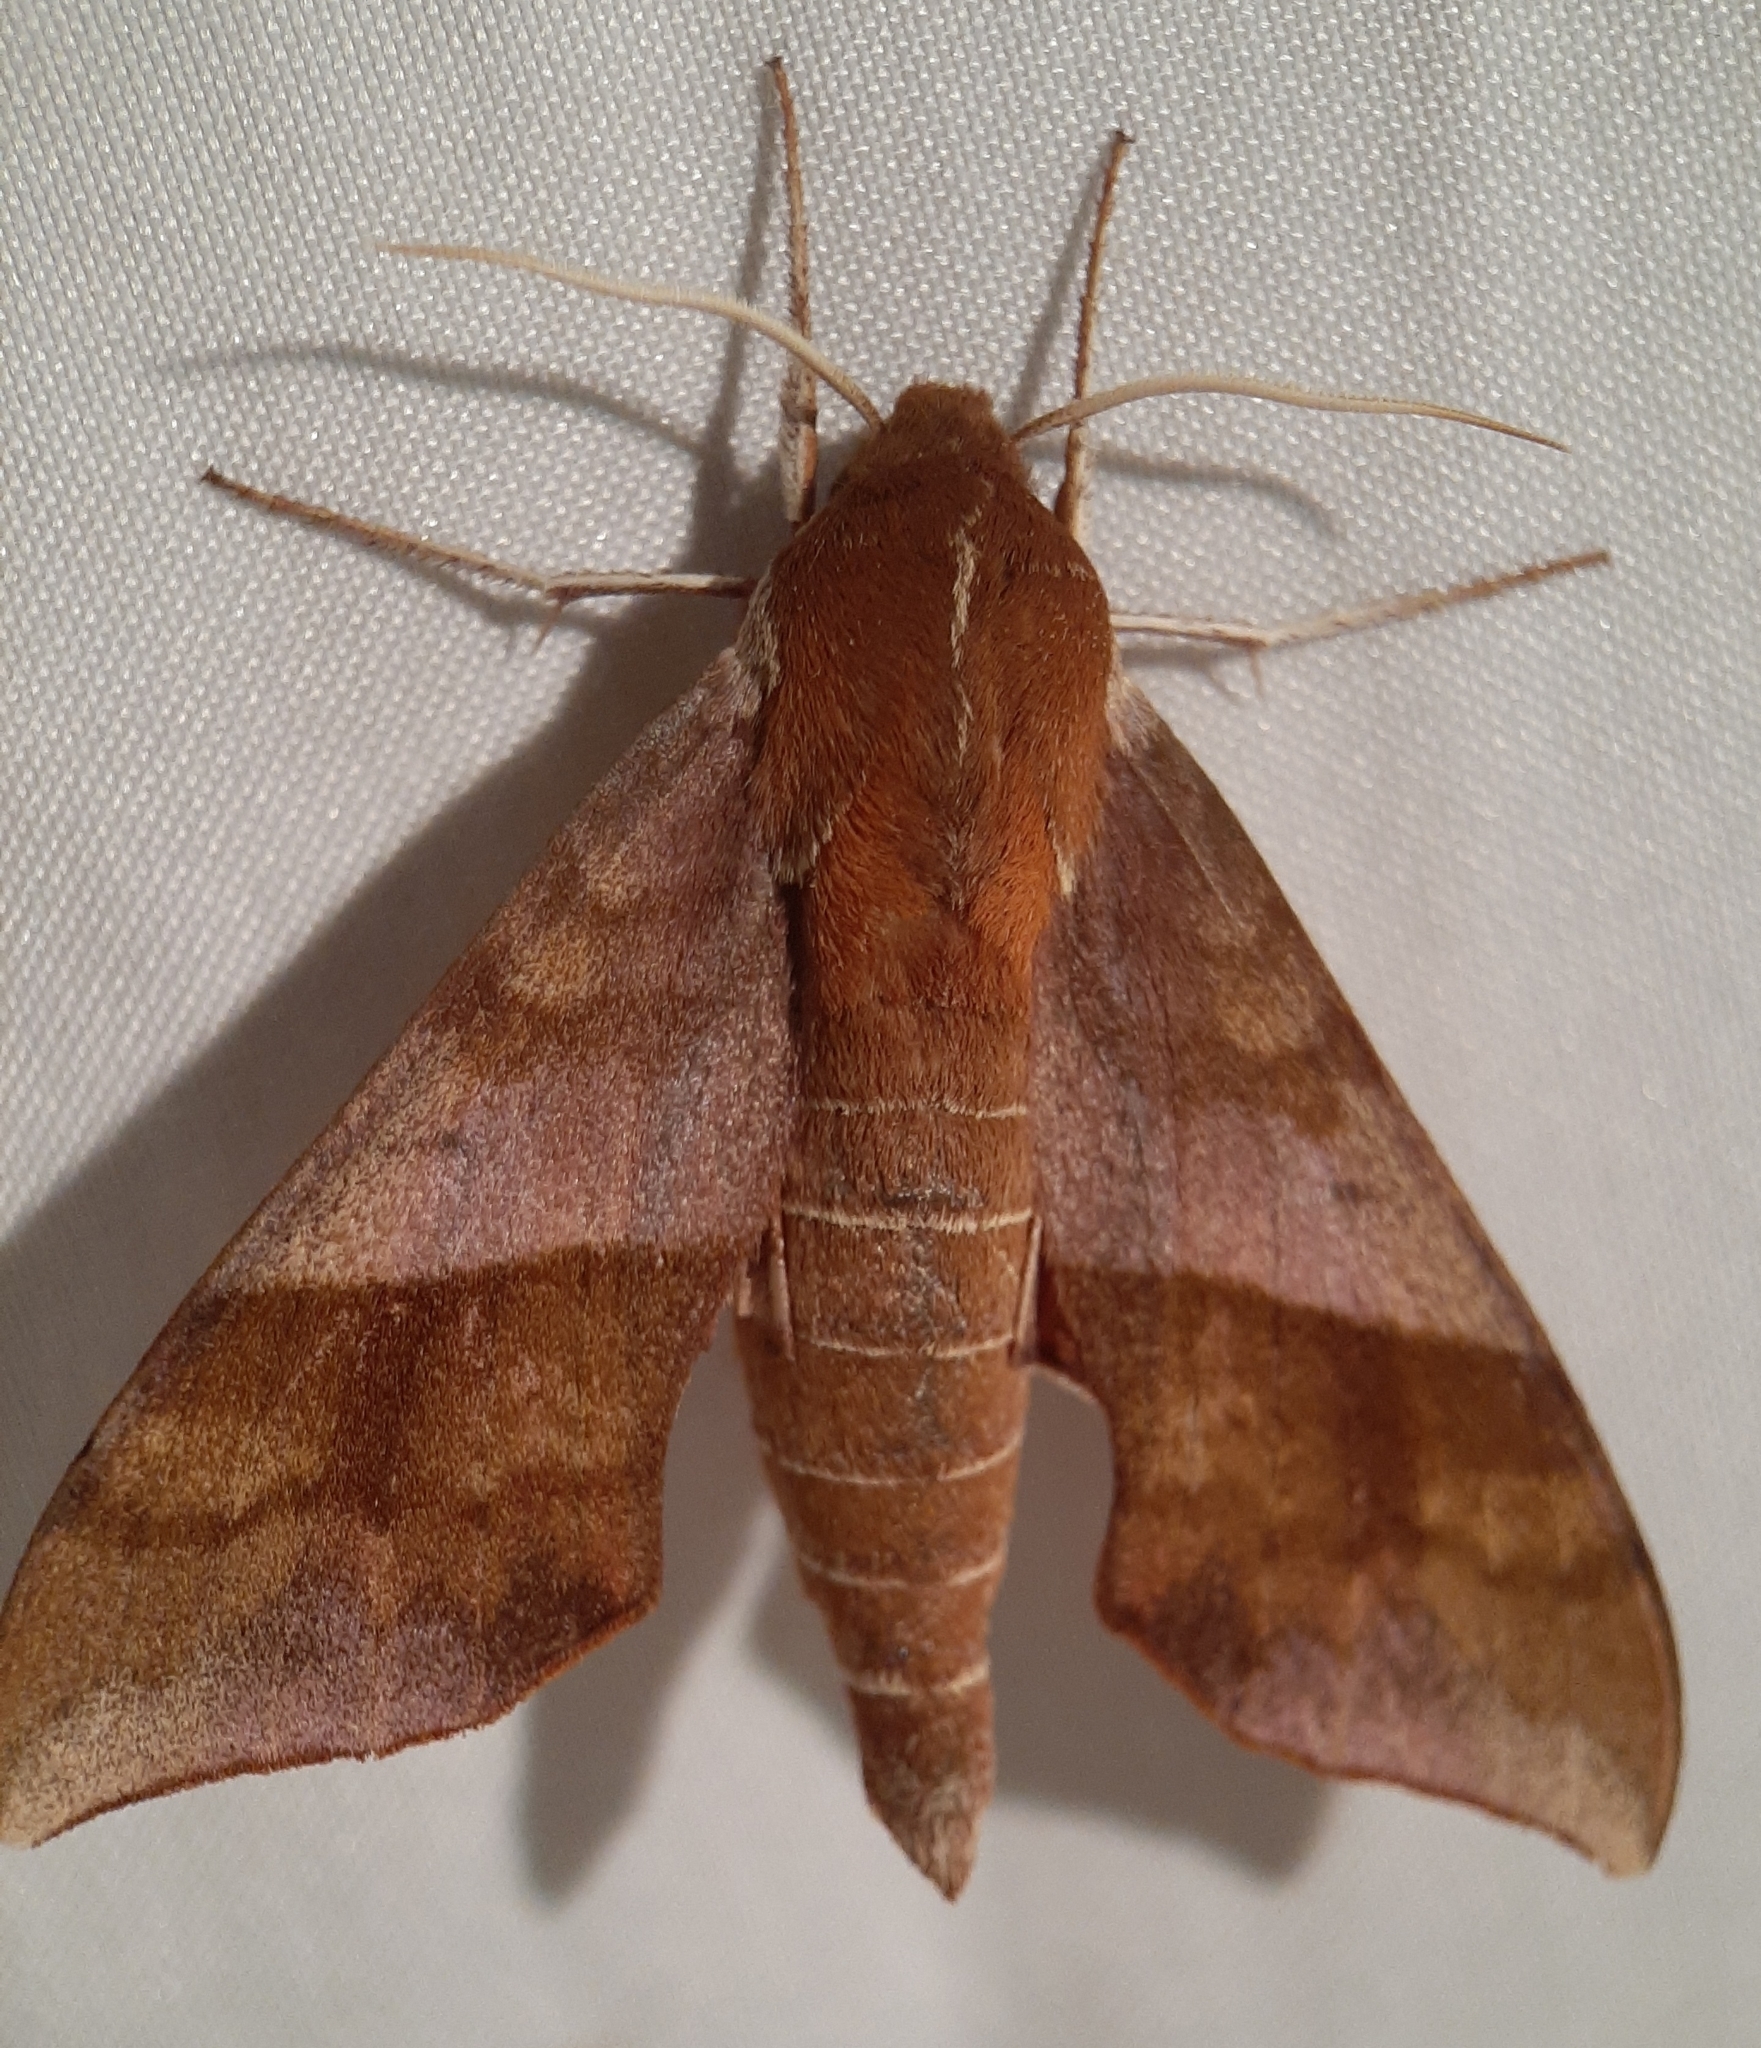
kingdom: Animalia
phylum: Arthropoda
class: Insecta
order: Lepidoptera
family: Sphingidae
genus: Darapsa
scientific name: Darapsa choerilus
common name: Azalea sphinx
